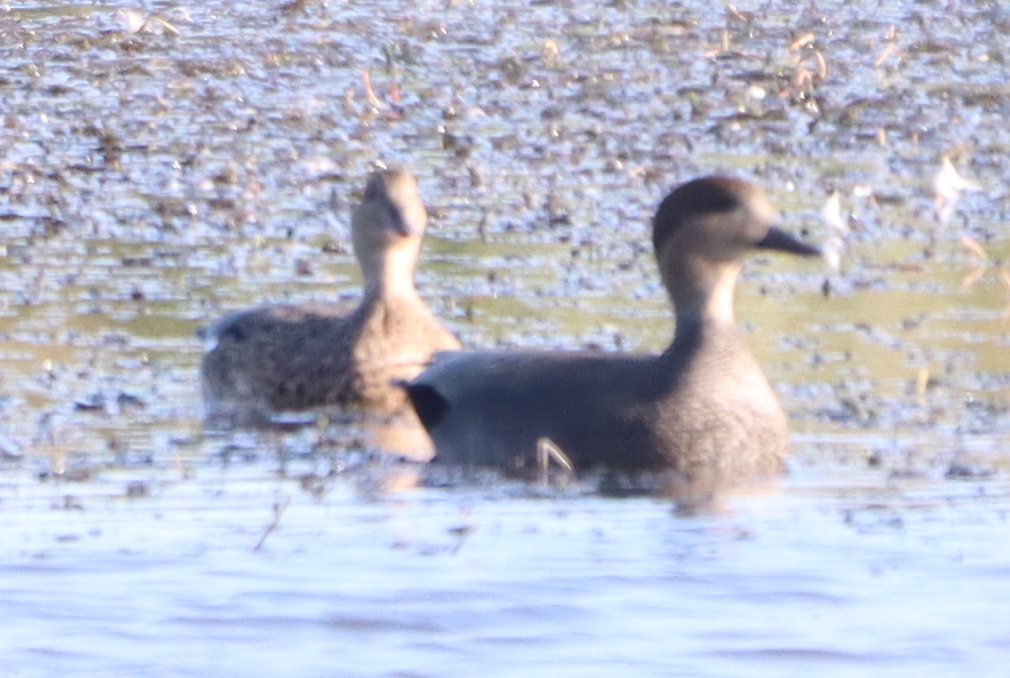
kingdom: Animalia
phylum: Chordata
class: Aves
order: Anseriformes
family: Anatidae
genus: Mareca
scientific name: Mareca strepera
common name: Gadwall
